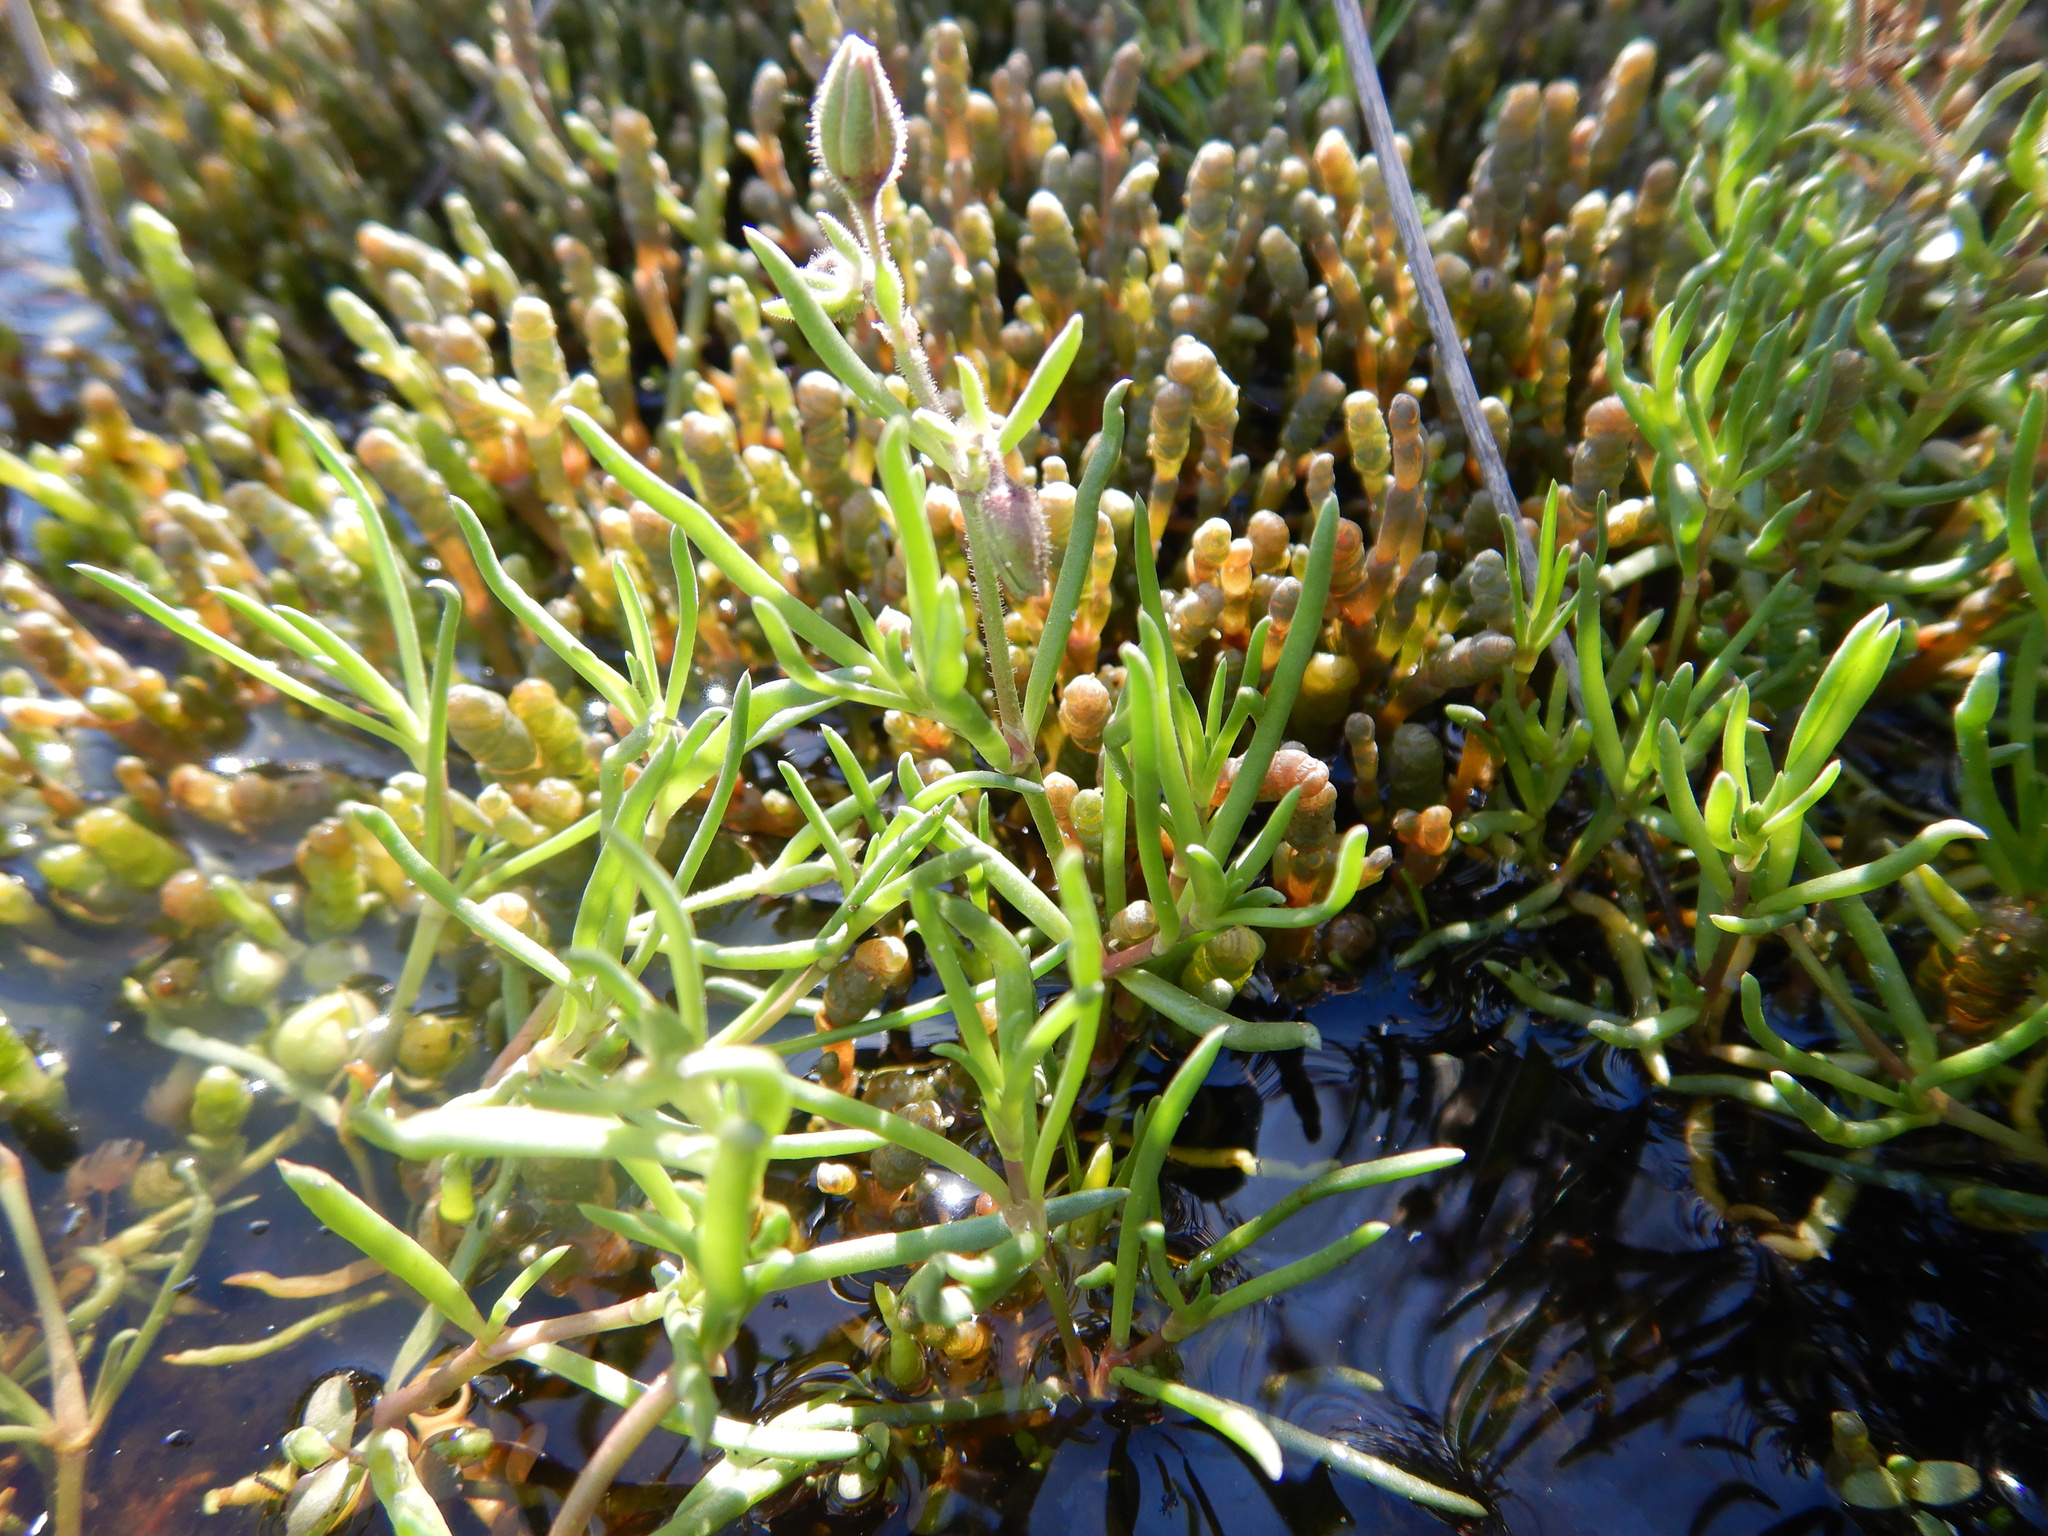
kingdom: Plantae
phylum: Tracheophyta
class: Magnoliopsida
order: Caryophyllales
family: Caryophyllaceae
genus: Spergularia
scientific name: Spergularia rubra
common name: Red sand-spurrey
